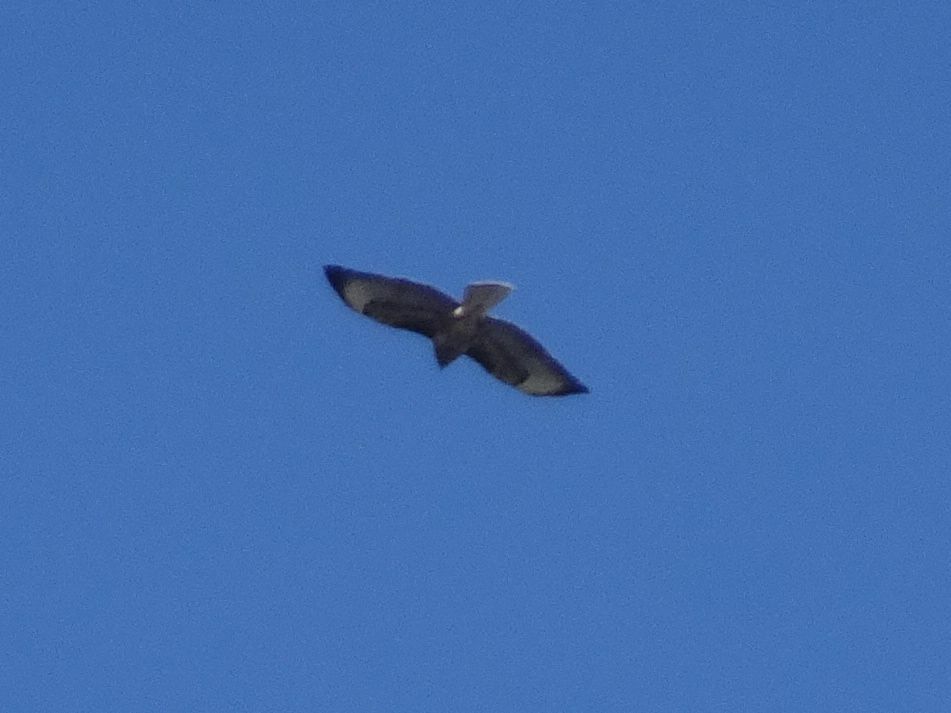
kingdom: Animalia
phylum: Chordata
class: Aves
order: Accipitriformes
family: Accipitridae
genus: Buteo
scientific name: Buteo buteo
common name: Common buzzard
